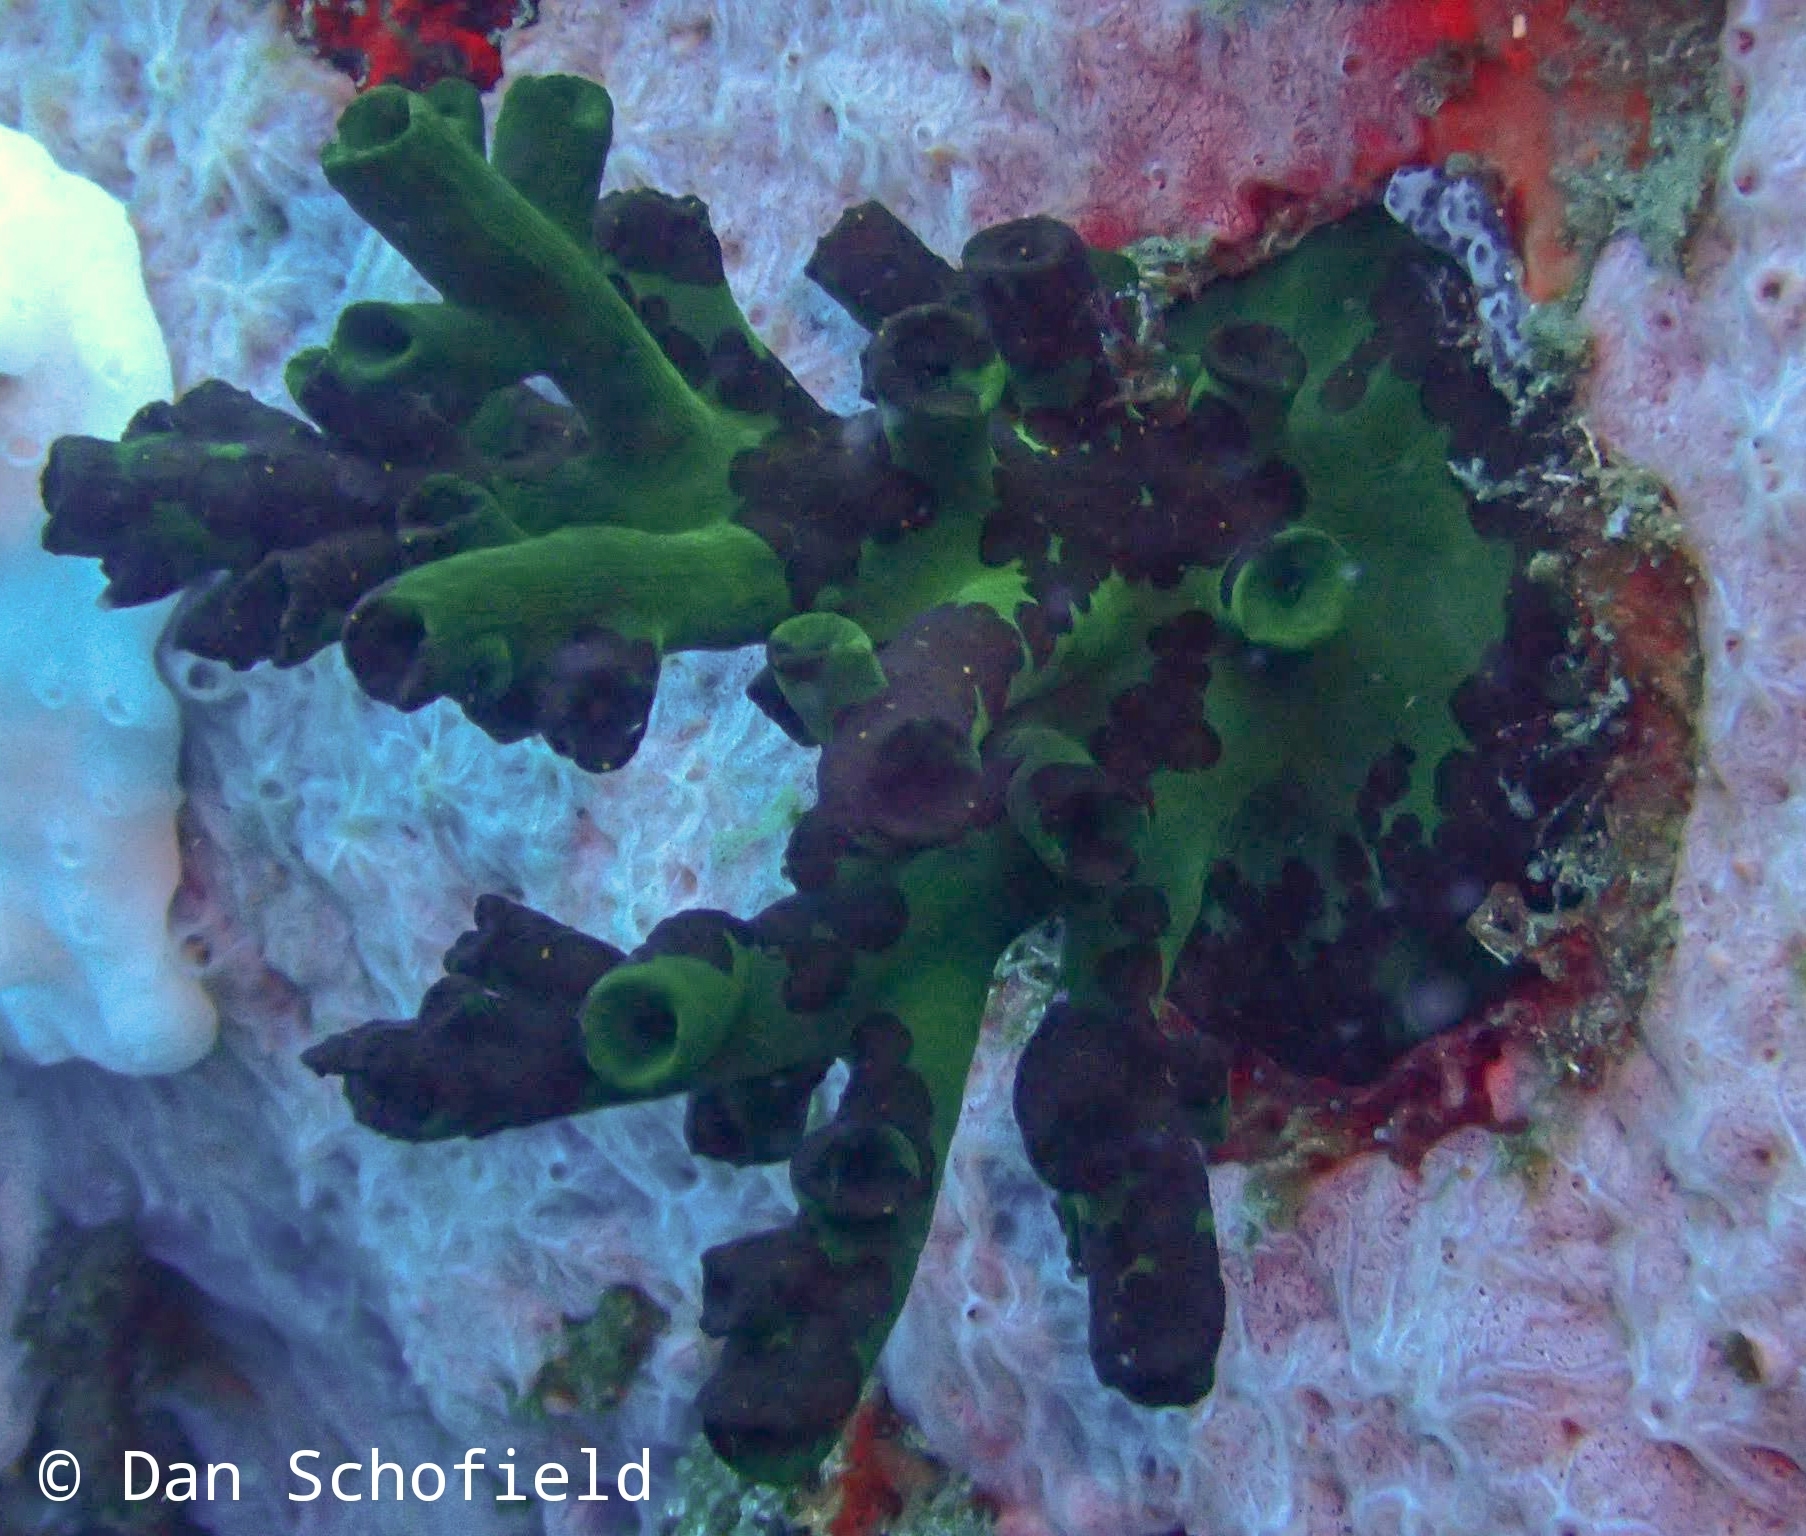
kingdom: Animalia
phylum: Cnidaria
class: Anthozoa
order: Scleractinia
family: Dendrophylliidae
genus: Tubastraea
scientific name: Tubastraea micranthus
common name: Black sun coral
